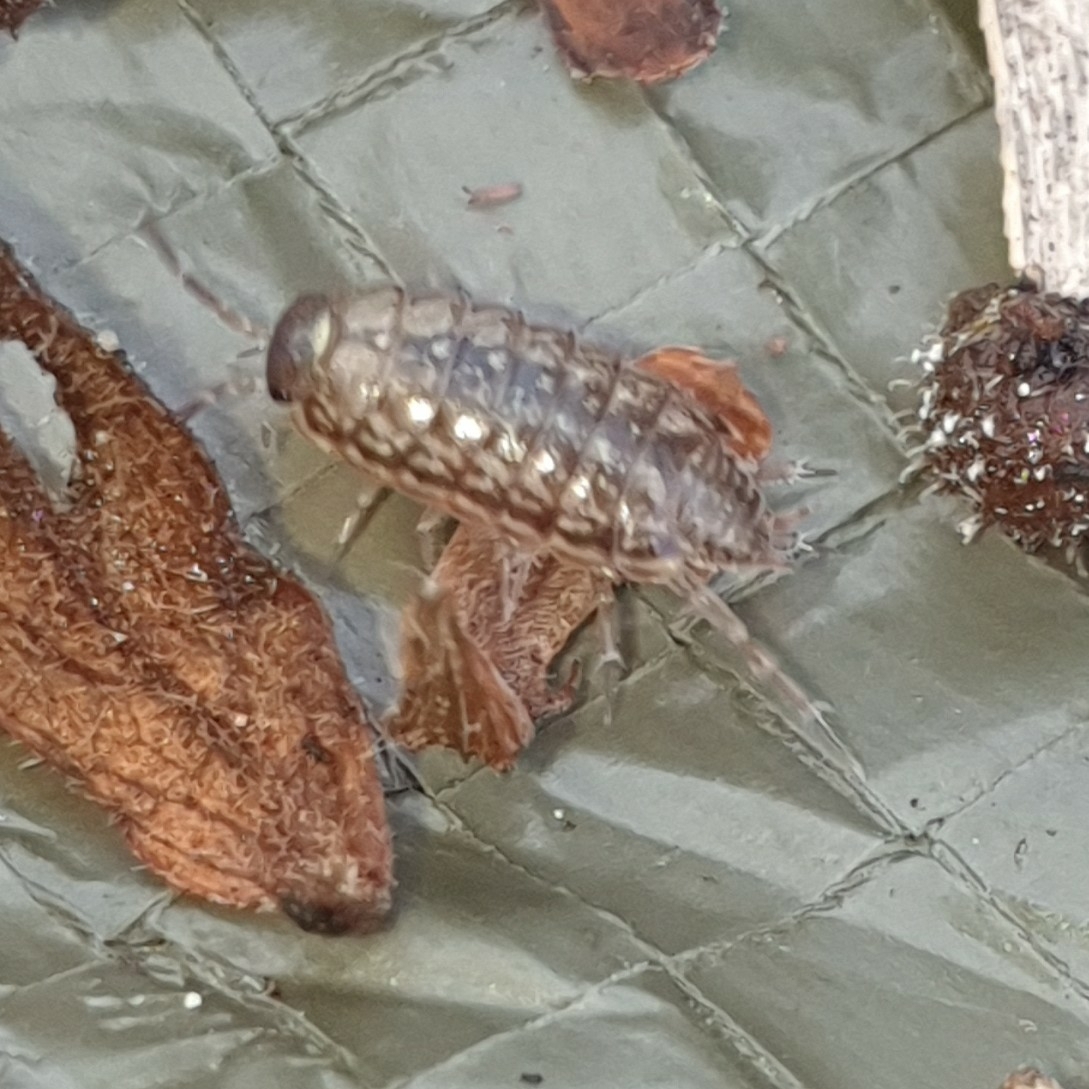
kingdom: Animalia
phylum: Arthropoda
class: Malacostraca
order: Isopoda
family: Philosciidae
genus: Philoscia
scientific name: Philoscia muscorum
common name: Common striped woodlouse
